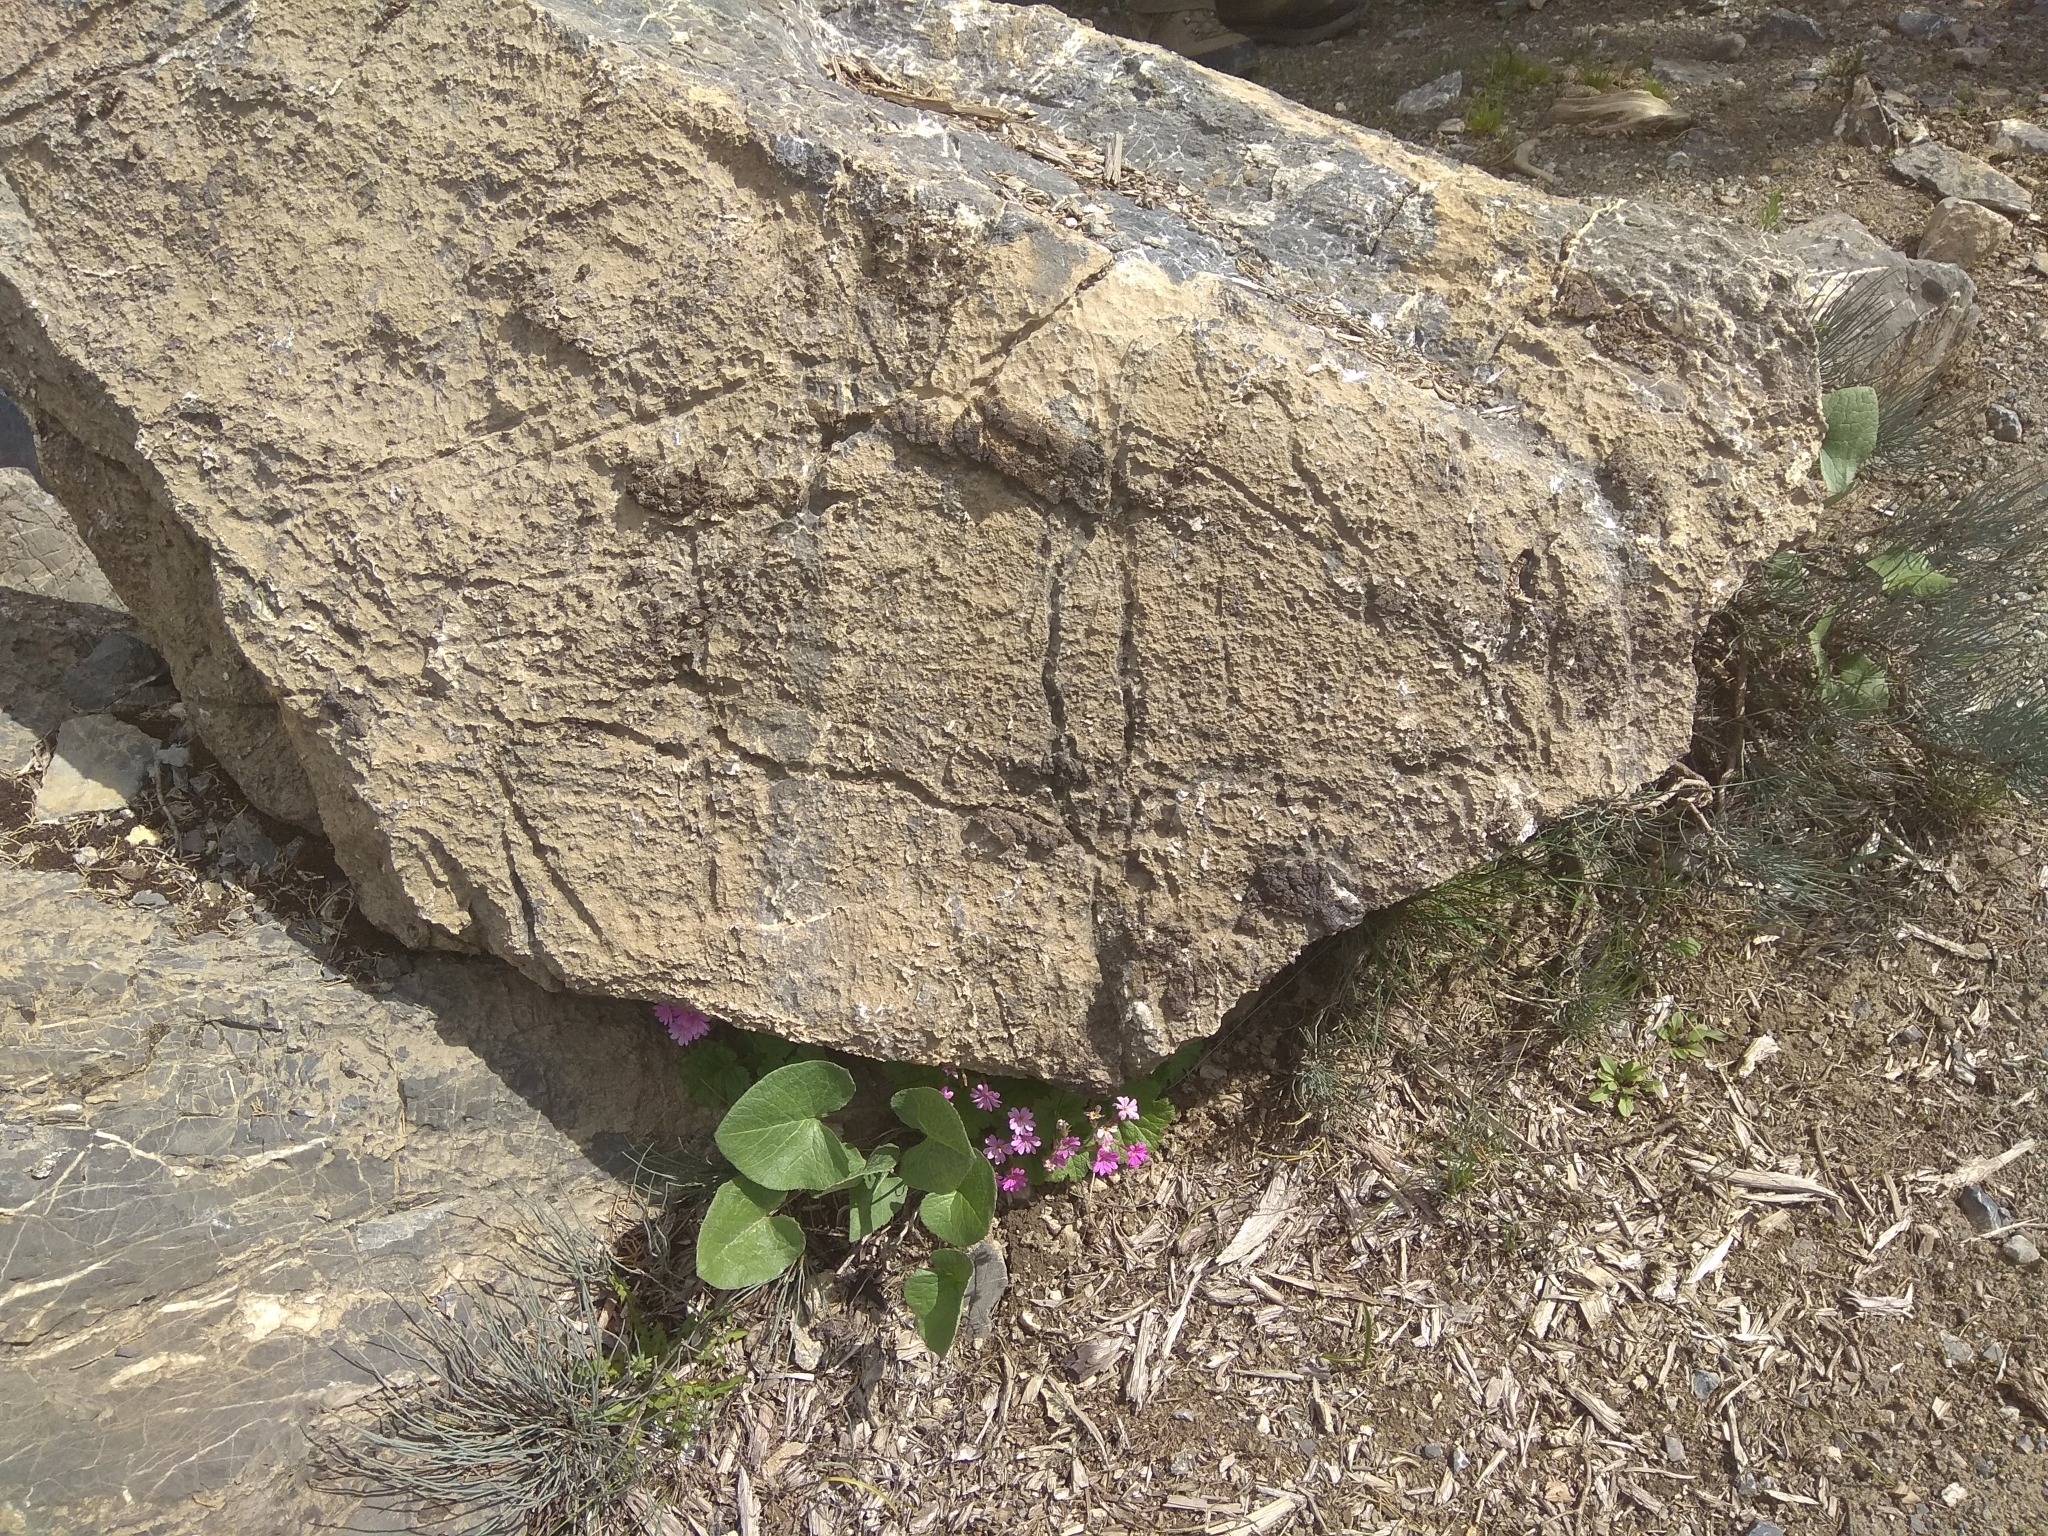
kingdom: Plantae
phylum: Tracheophyta
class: Magnoliopsida
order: Ericales
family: Primulaceae
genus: Primula
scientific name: Primula minkwitziae
